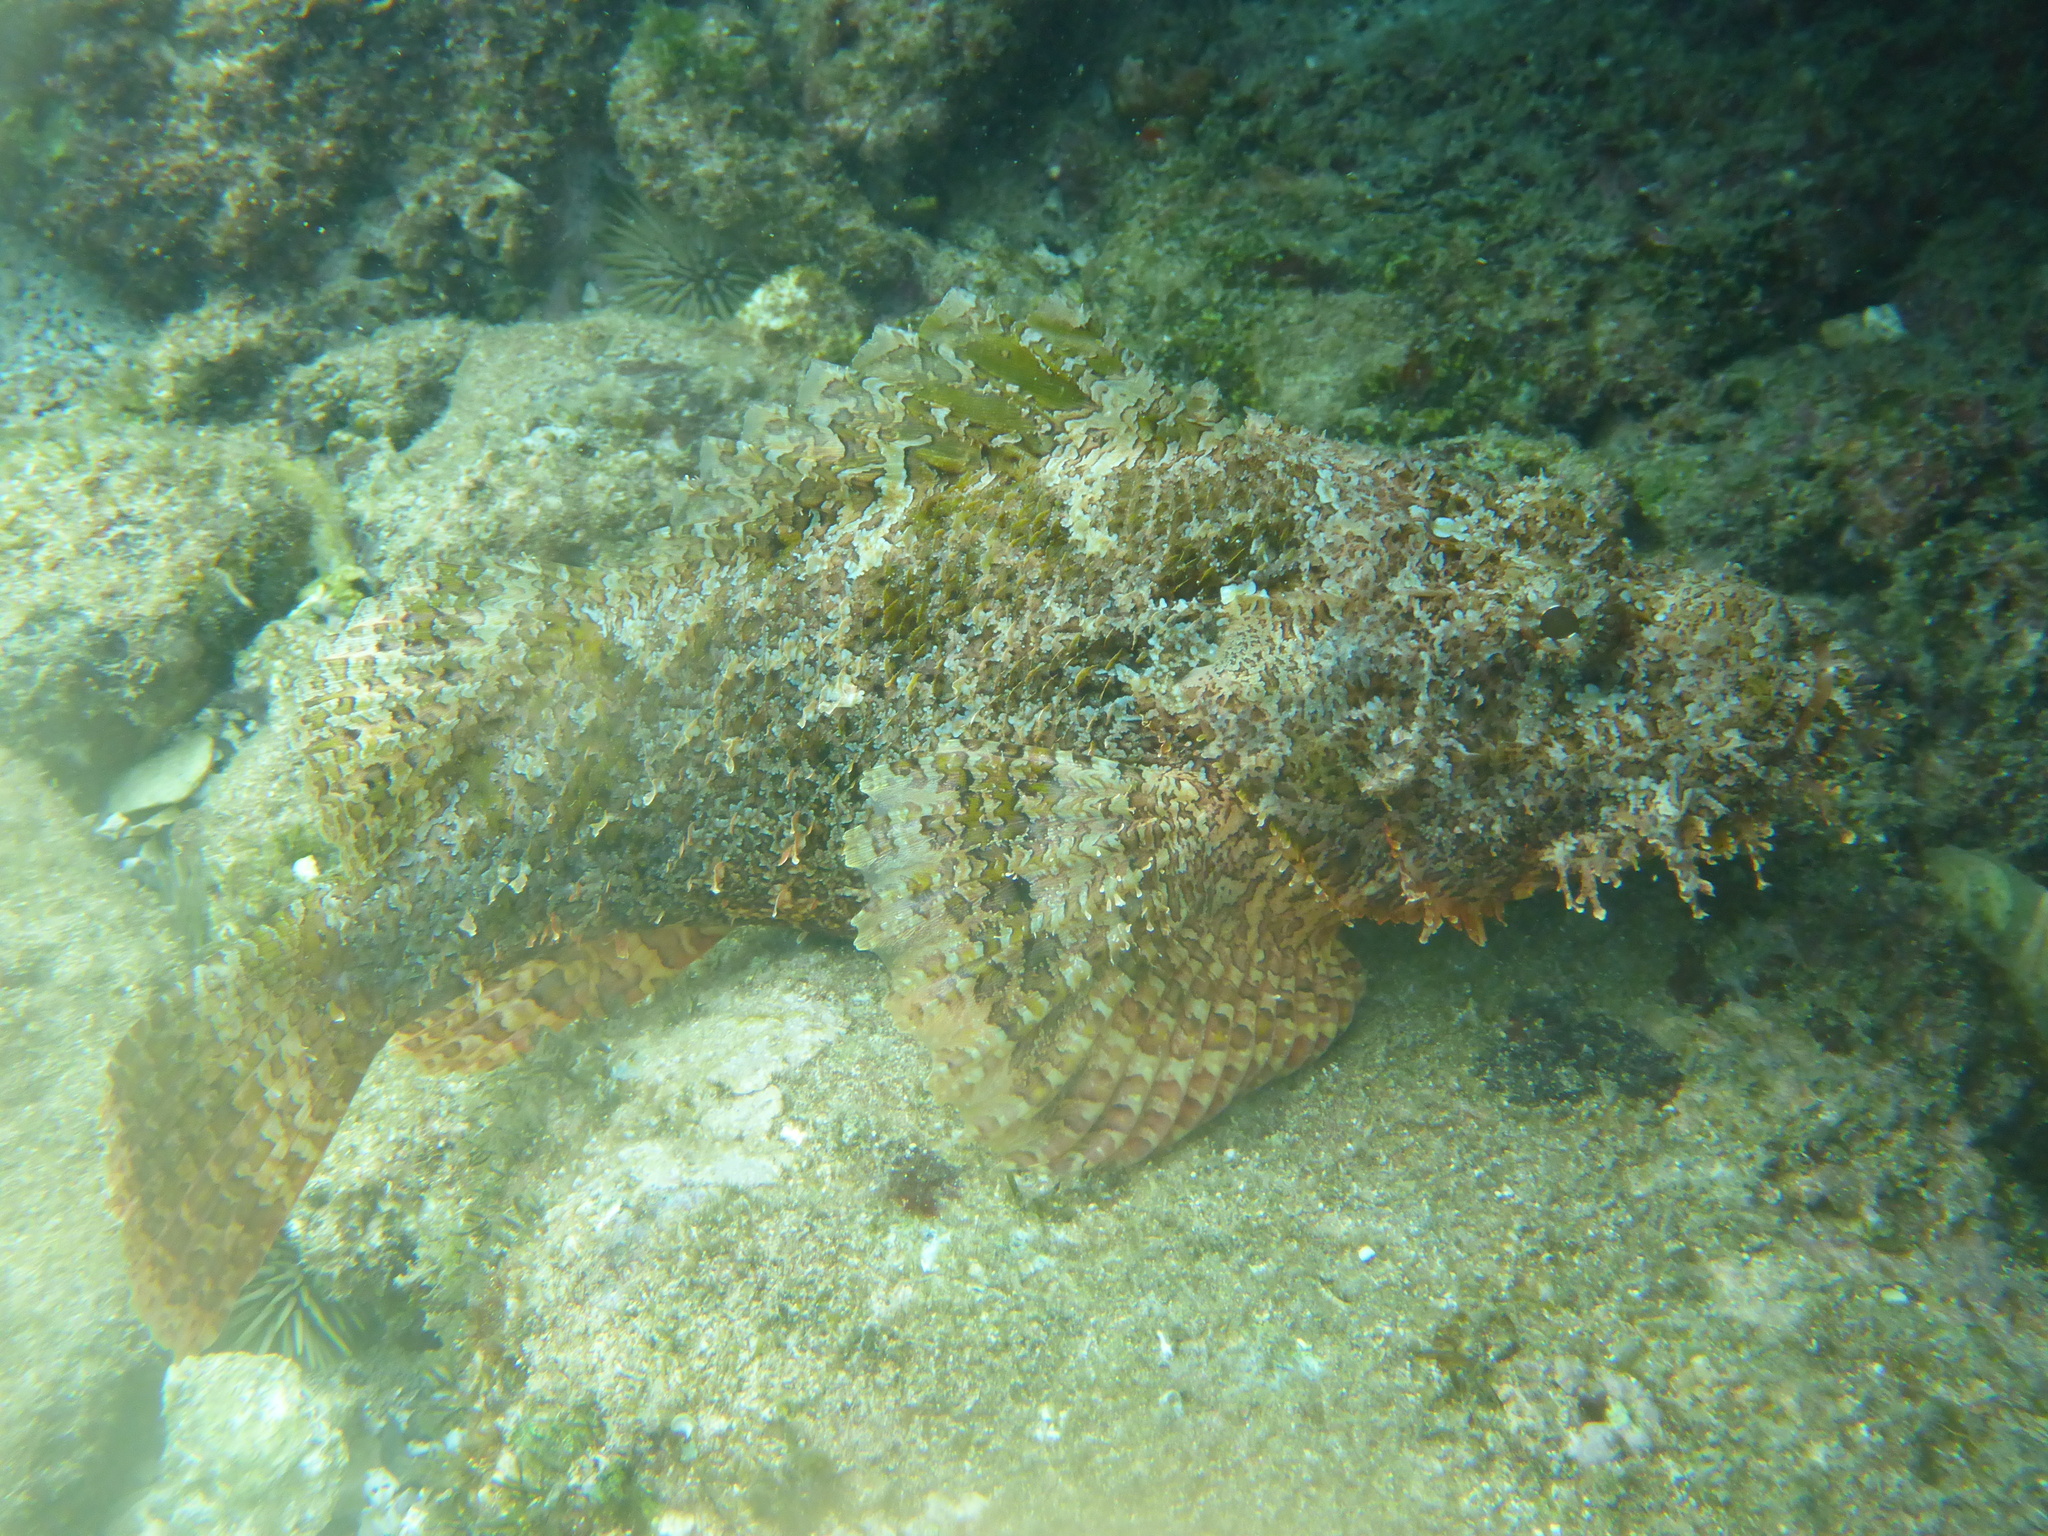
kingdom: Animalia
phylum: Chordata
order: Scorpaeniformes
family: Scorpaenidae
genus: Scorpaenopsis
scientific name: Scorpaenopsis cacopsis
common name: Jenkin's scorpionfish
